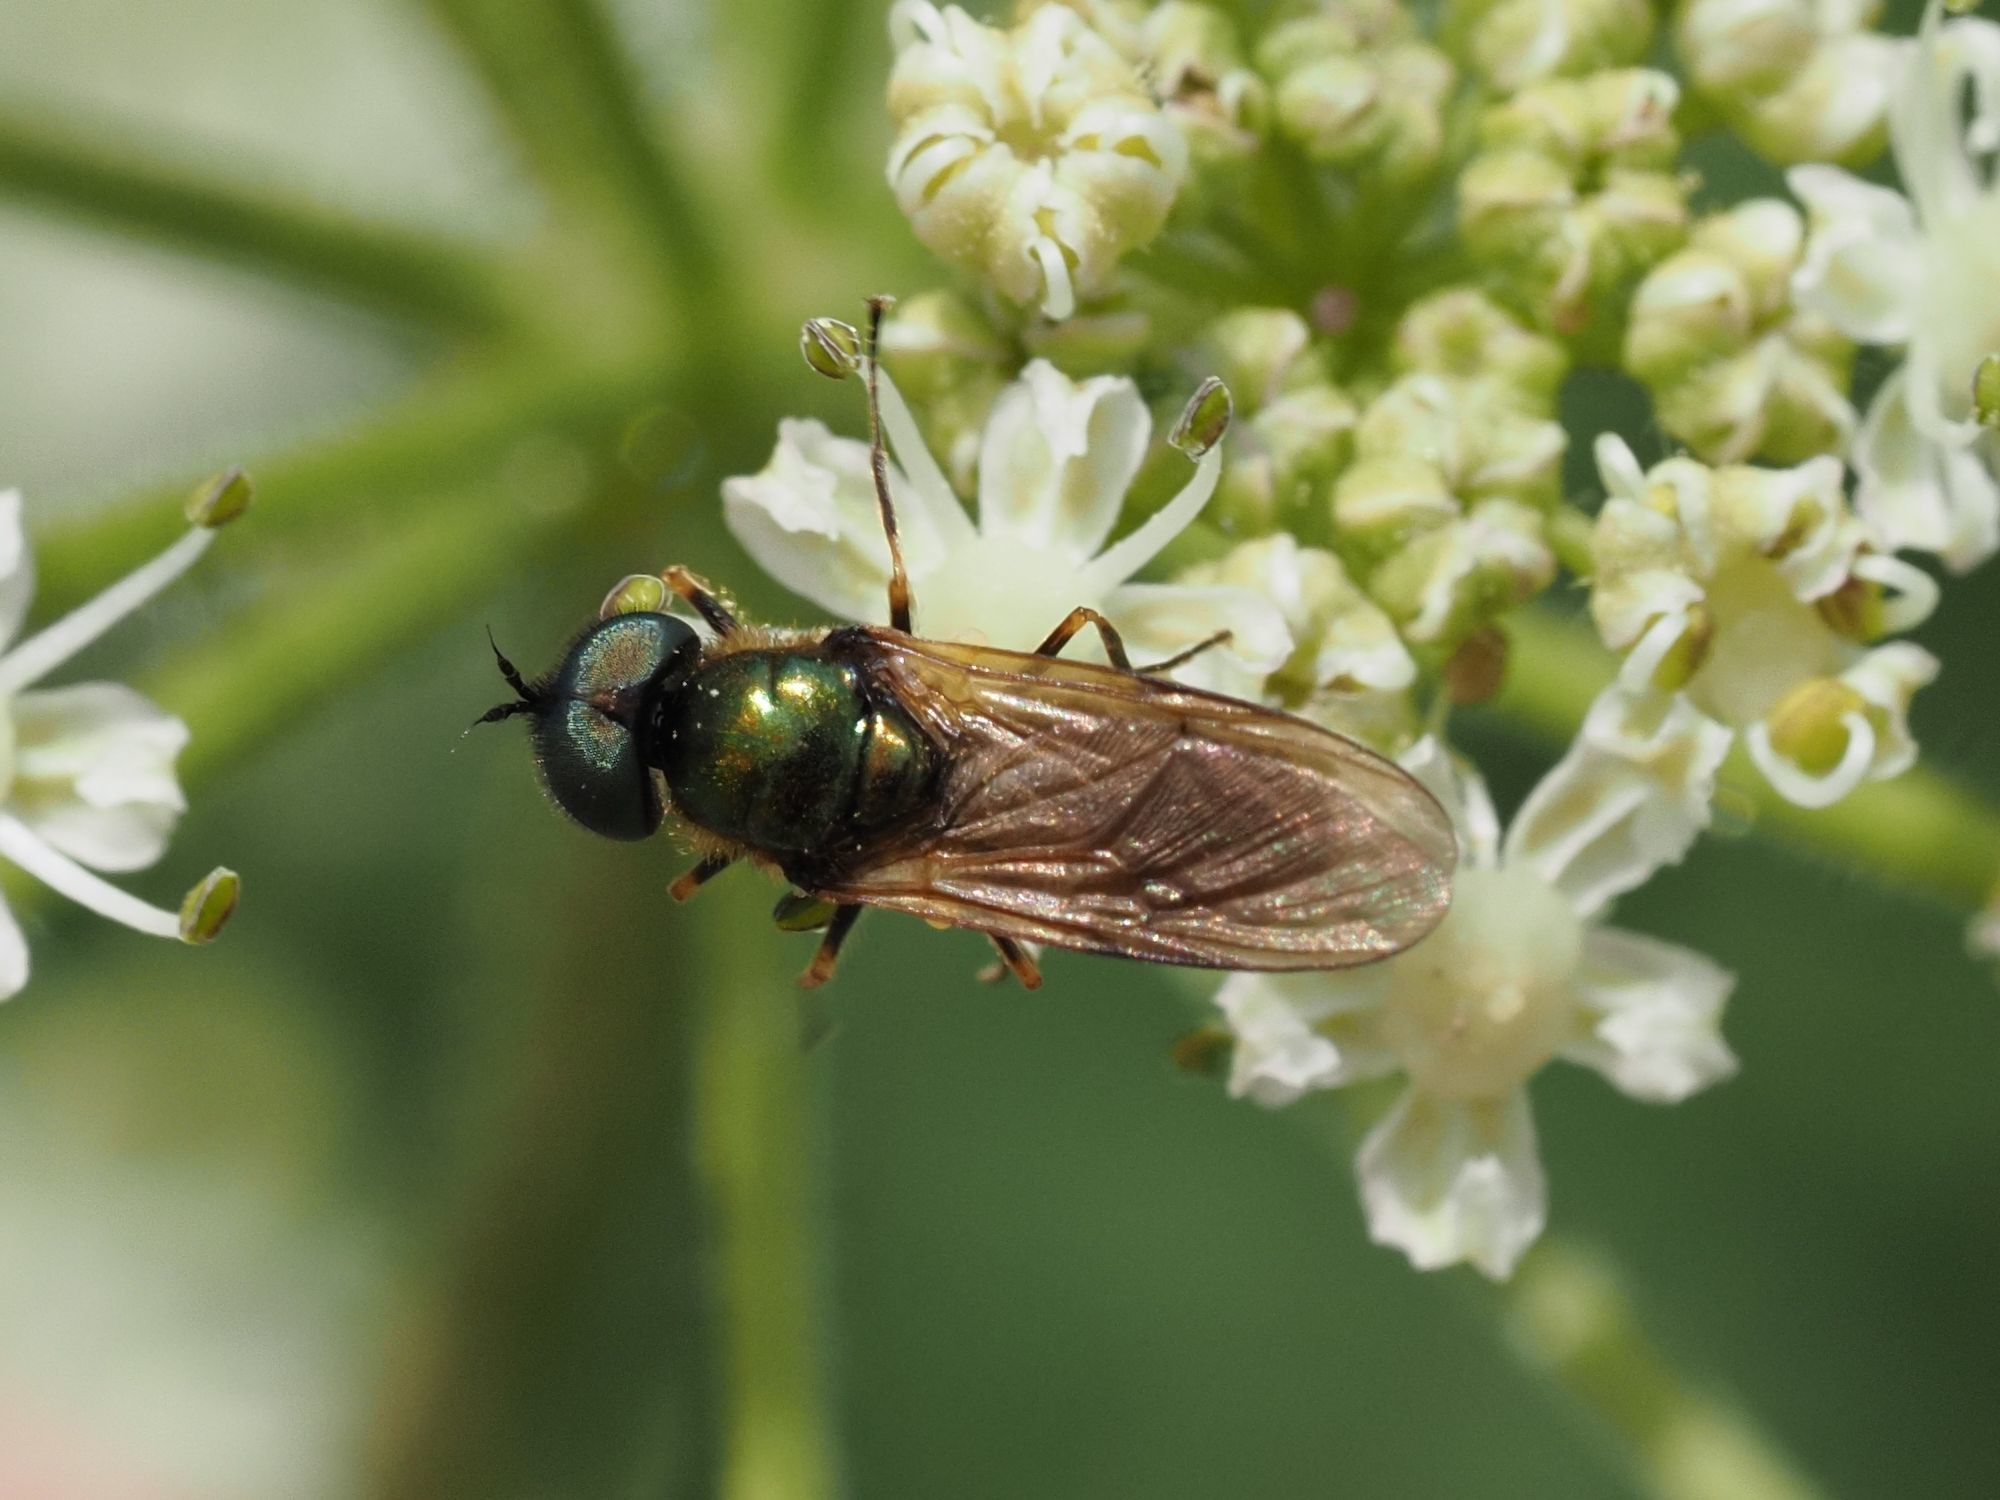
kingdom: Animalia
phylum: Arthropoda
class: Insecta
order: Diptera
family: Stratiomyidae
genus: Chloromyia
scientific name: Chloromyia formosa
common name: Soldier fly
